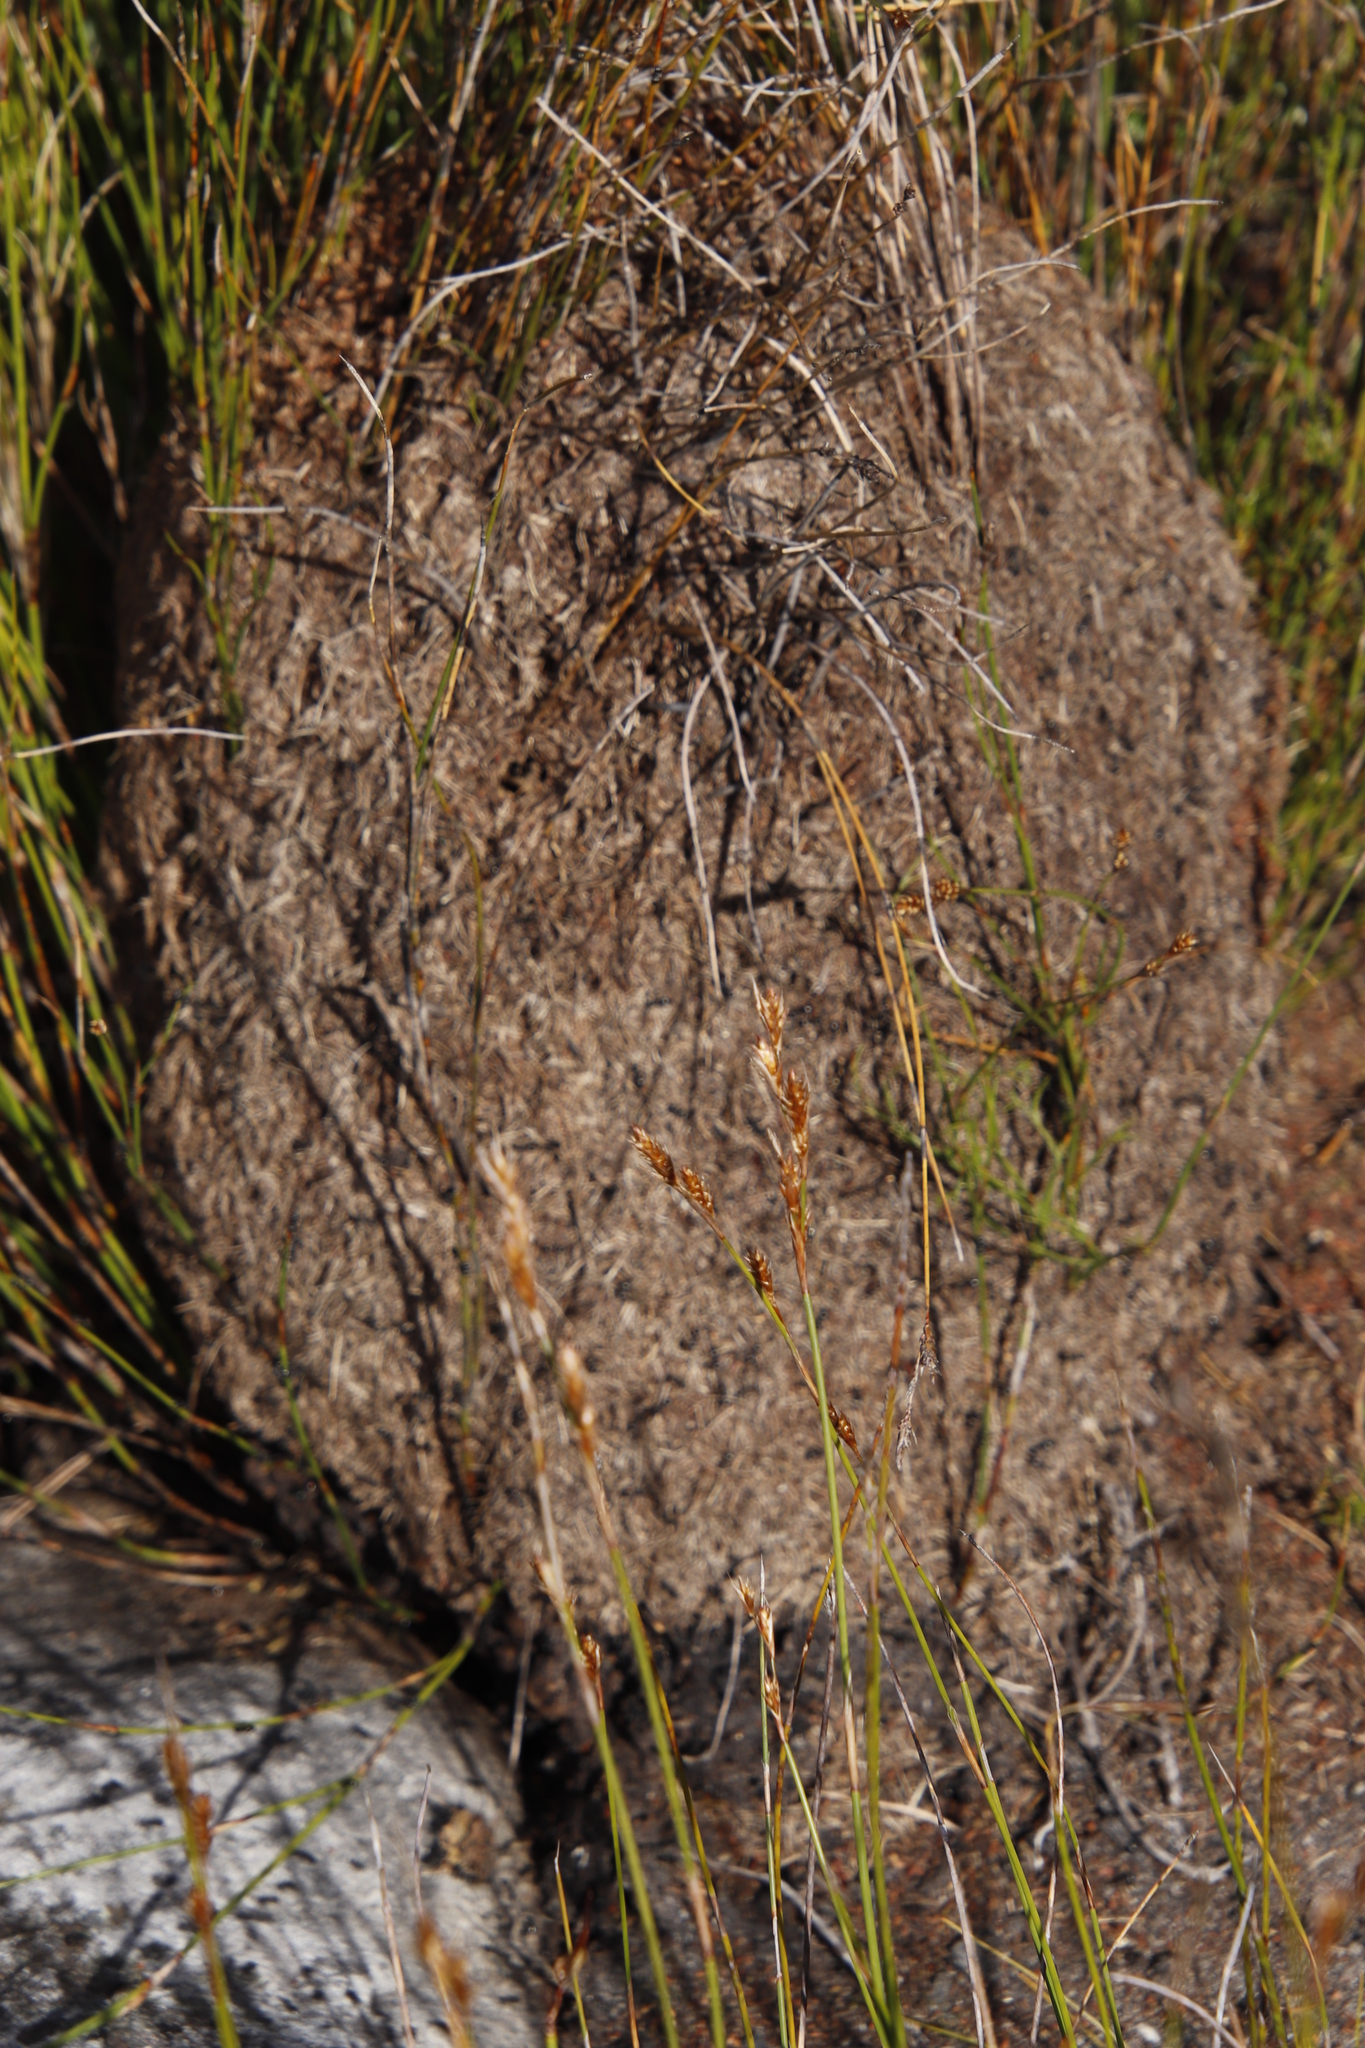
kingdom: Animalia
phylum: Arthropoda
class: Insecta
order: Hymenoptera
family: Formicidae
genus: Crematogaster
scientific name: Crematogaster peringueyi
